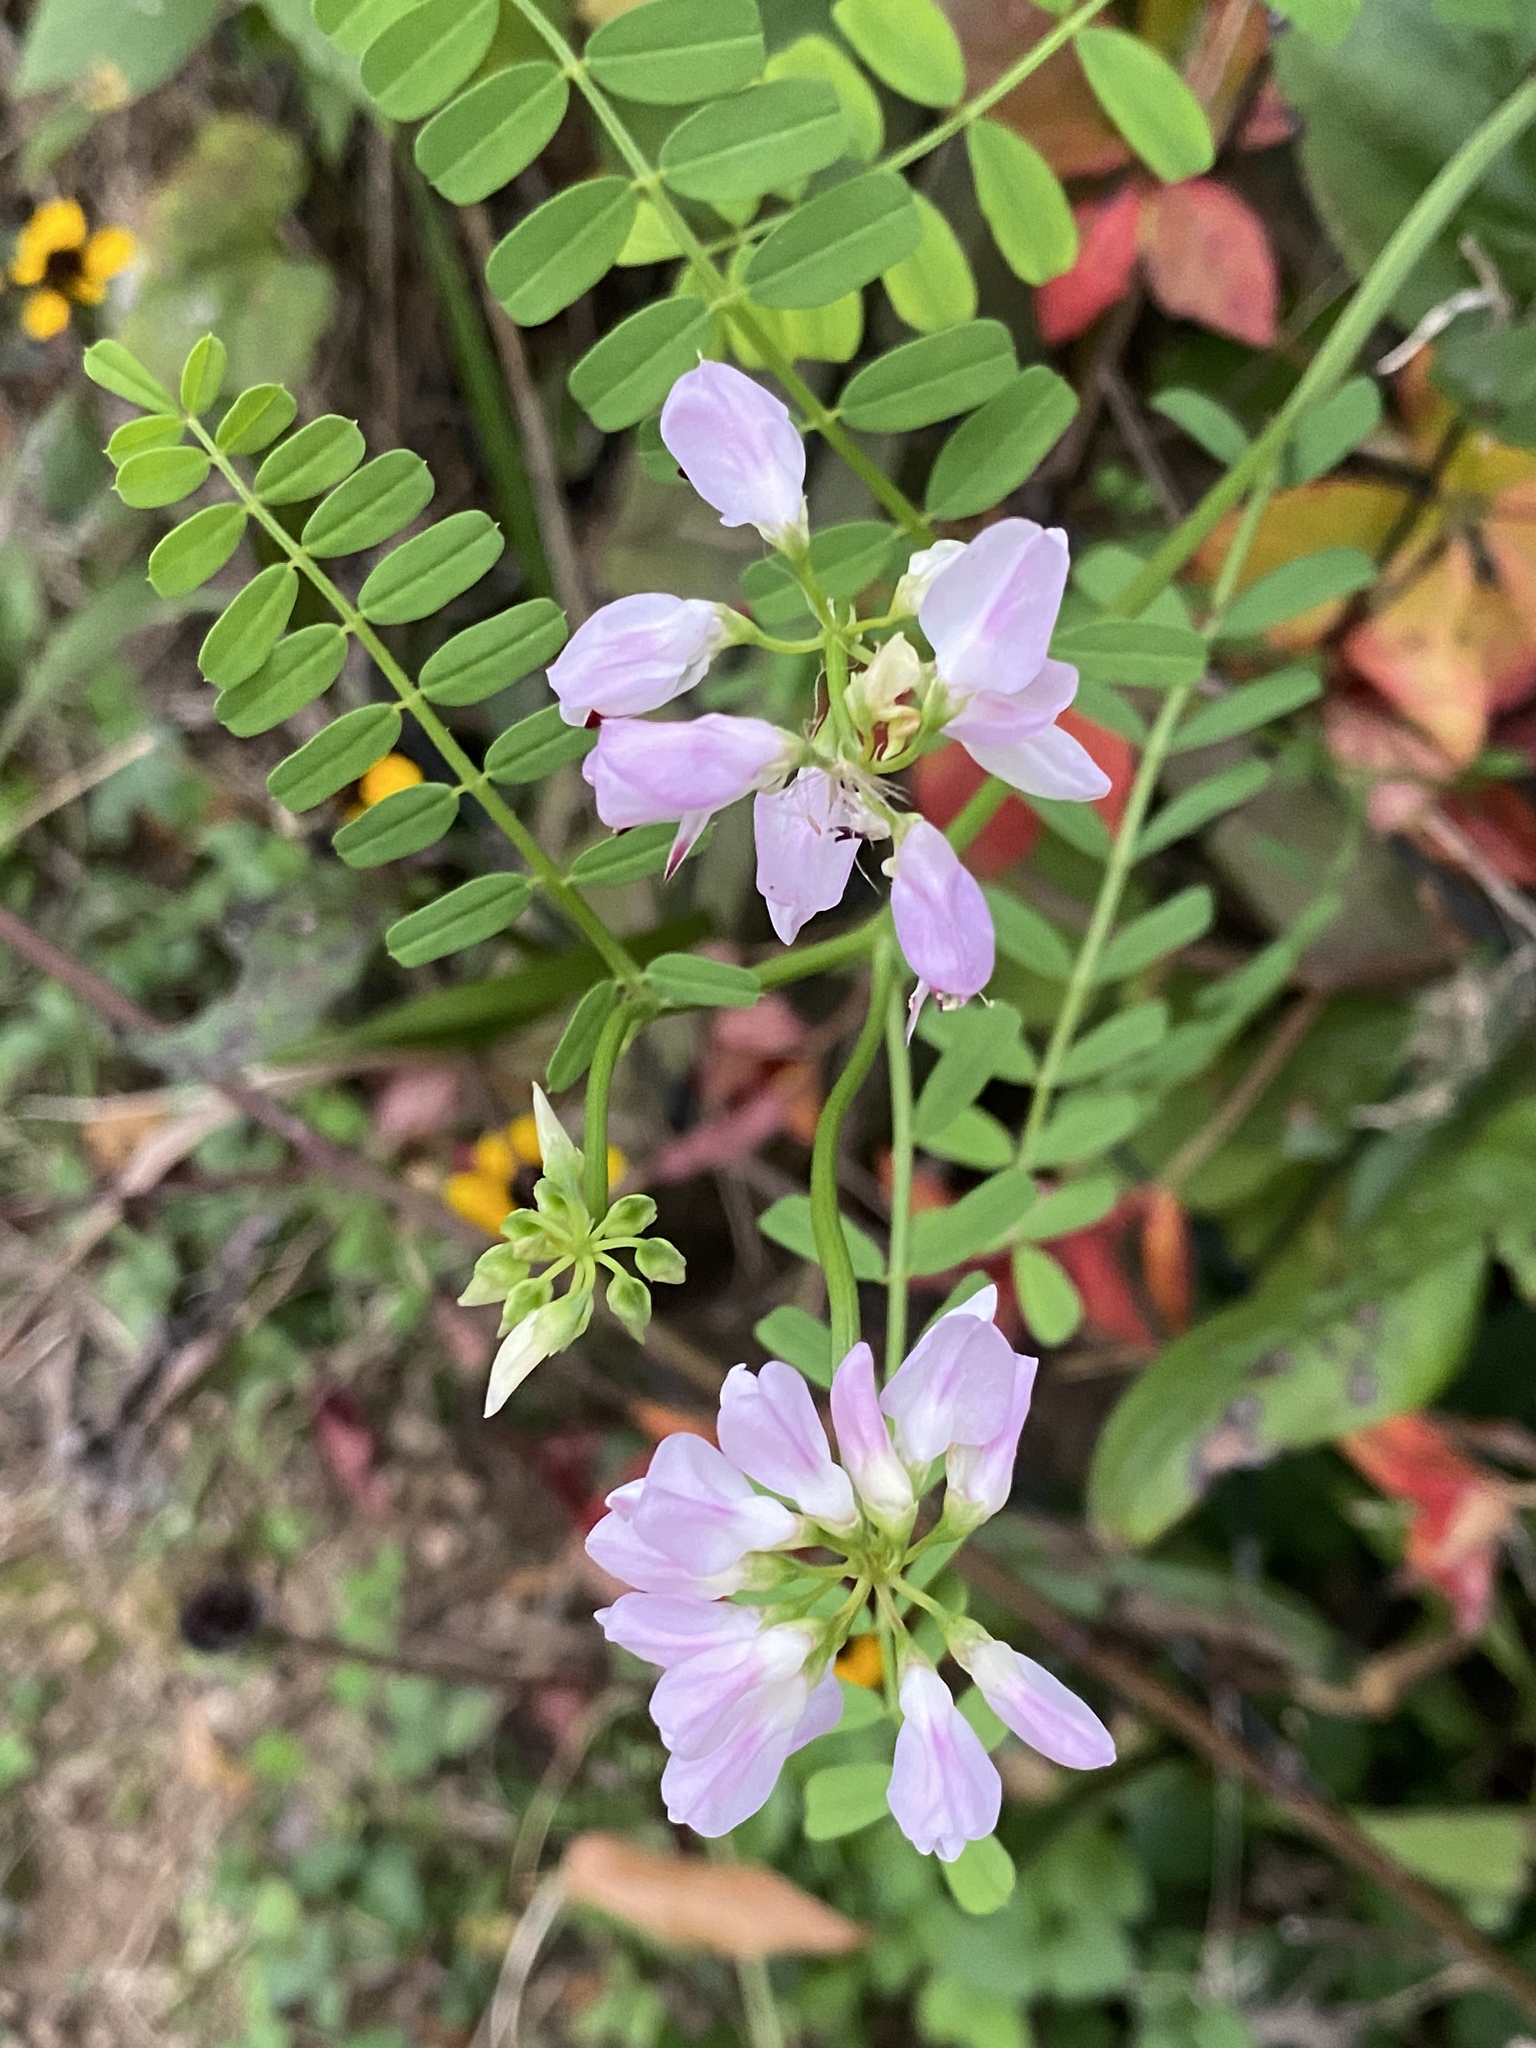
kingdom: Plantae
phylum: Tracheophyta
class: Magnoliopsida
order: Fabales
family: Fabaceae
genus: Coronilla
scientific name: Coronilla varia
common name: Crownvetch
